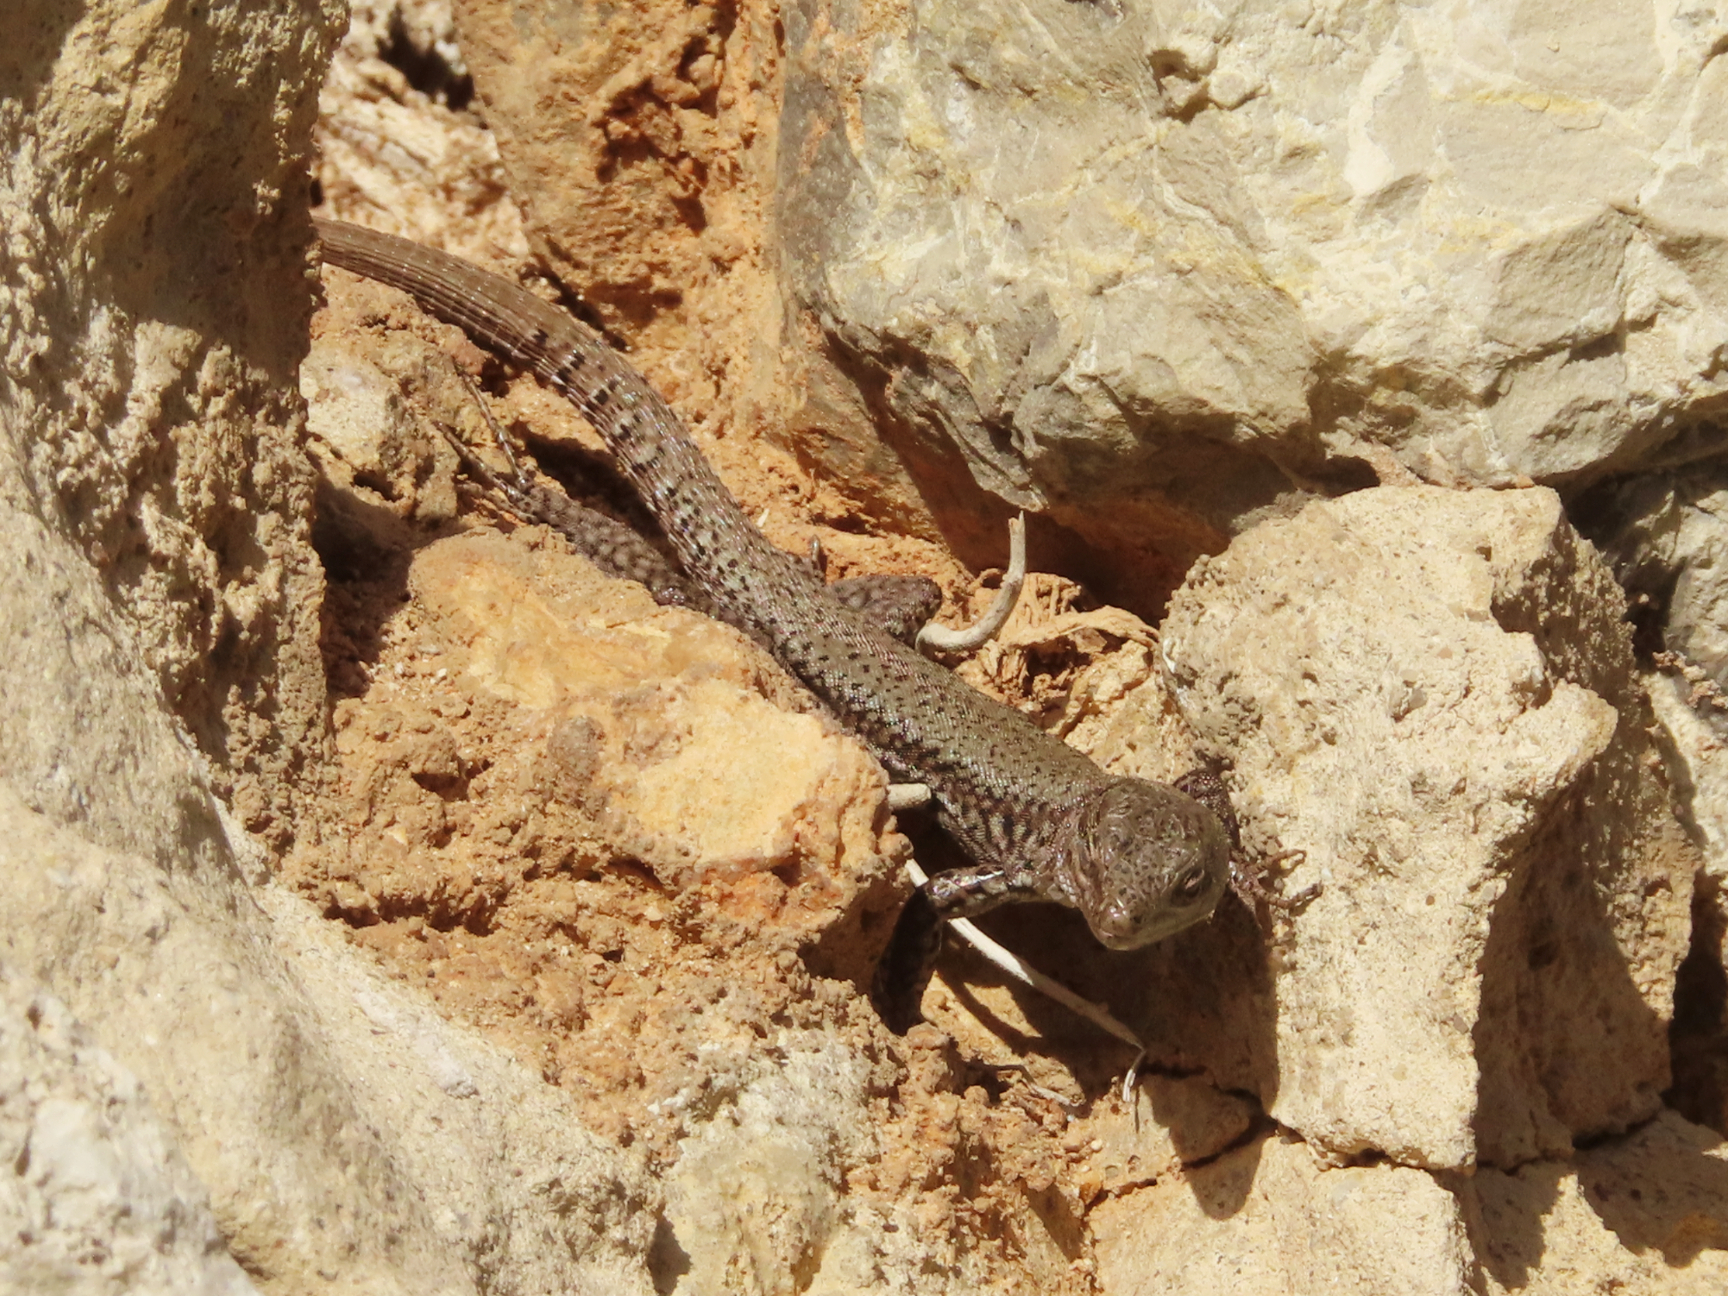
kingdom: Animalia
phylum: Chordata
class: Squamata
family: Lacertidae
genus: Podarcis
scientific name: Podarcis muralis
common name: Common wall lizard
